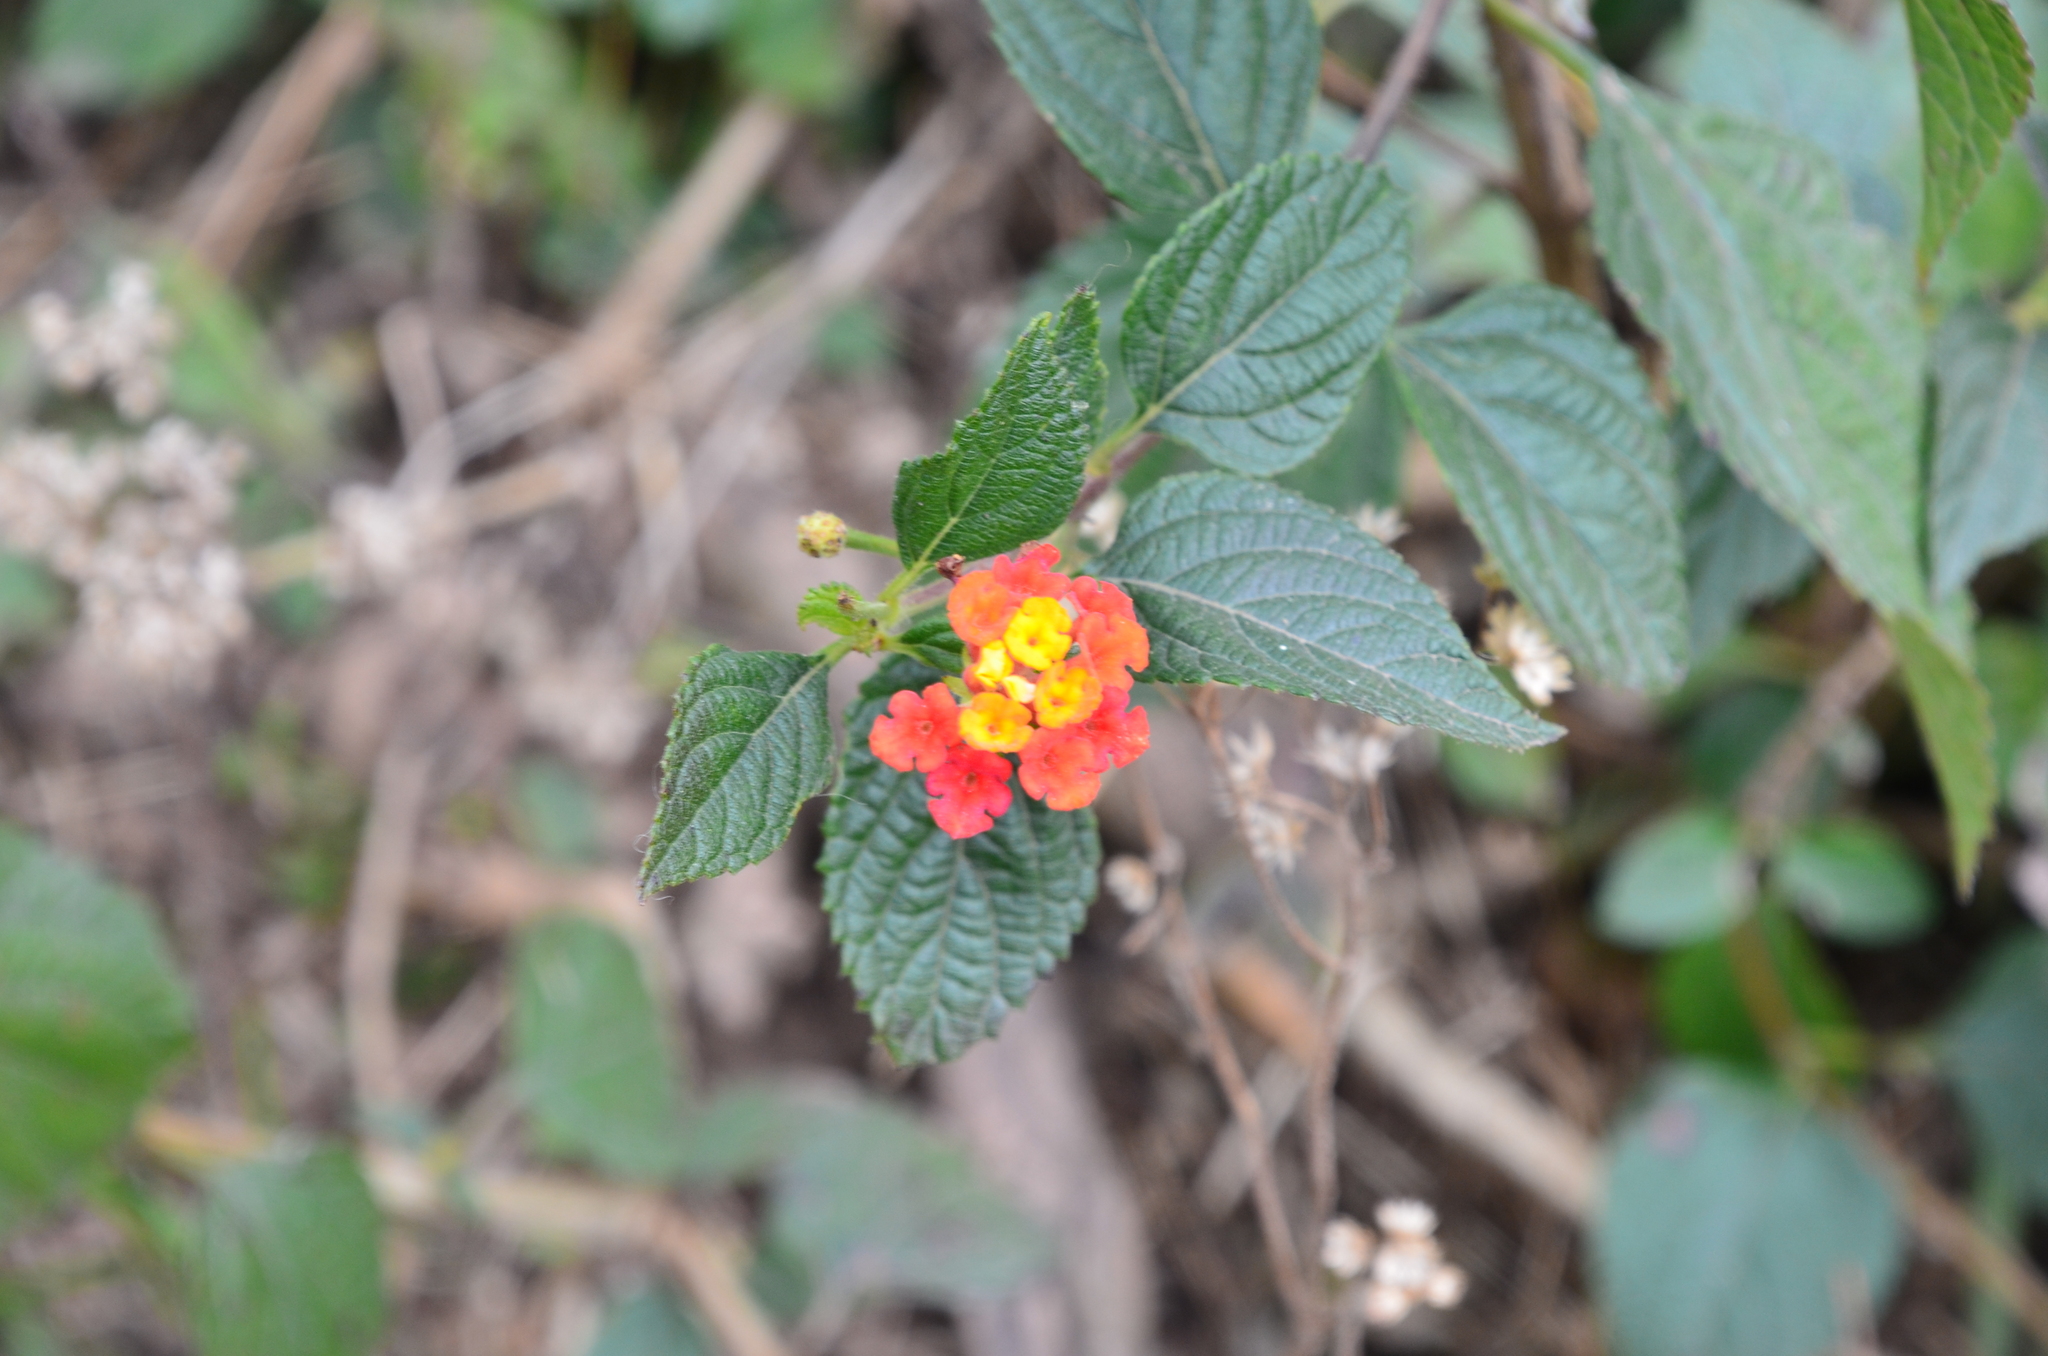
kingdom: Plantae
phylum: Tracheophyta
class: Magnoliopsida
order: Lamiales
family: Verbenaceae
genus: Lantana
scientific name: Lantana camara
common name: Lantana
